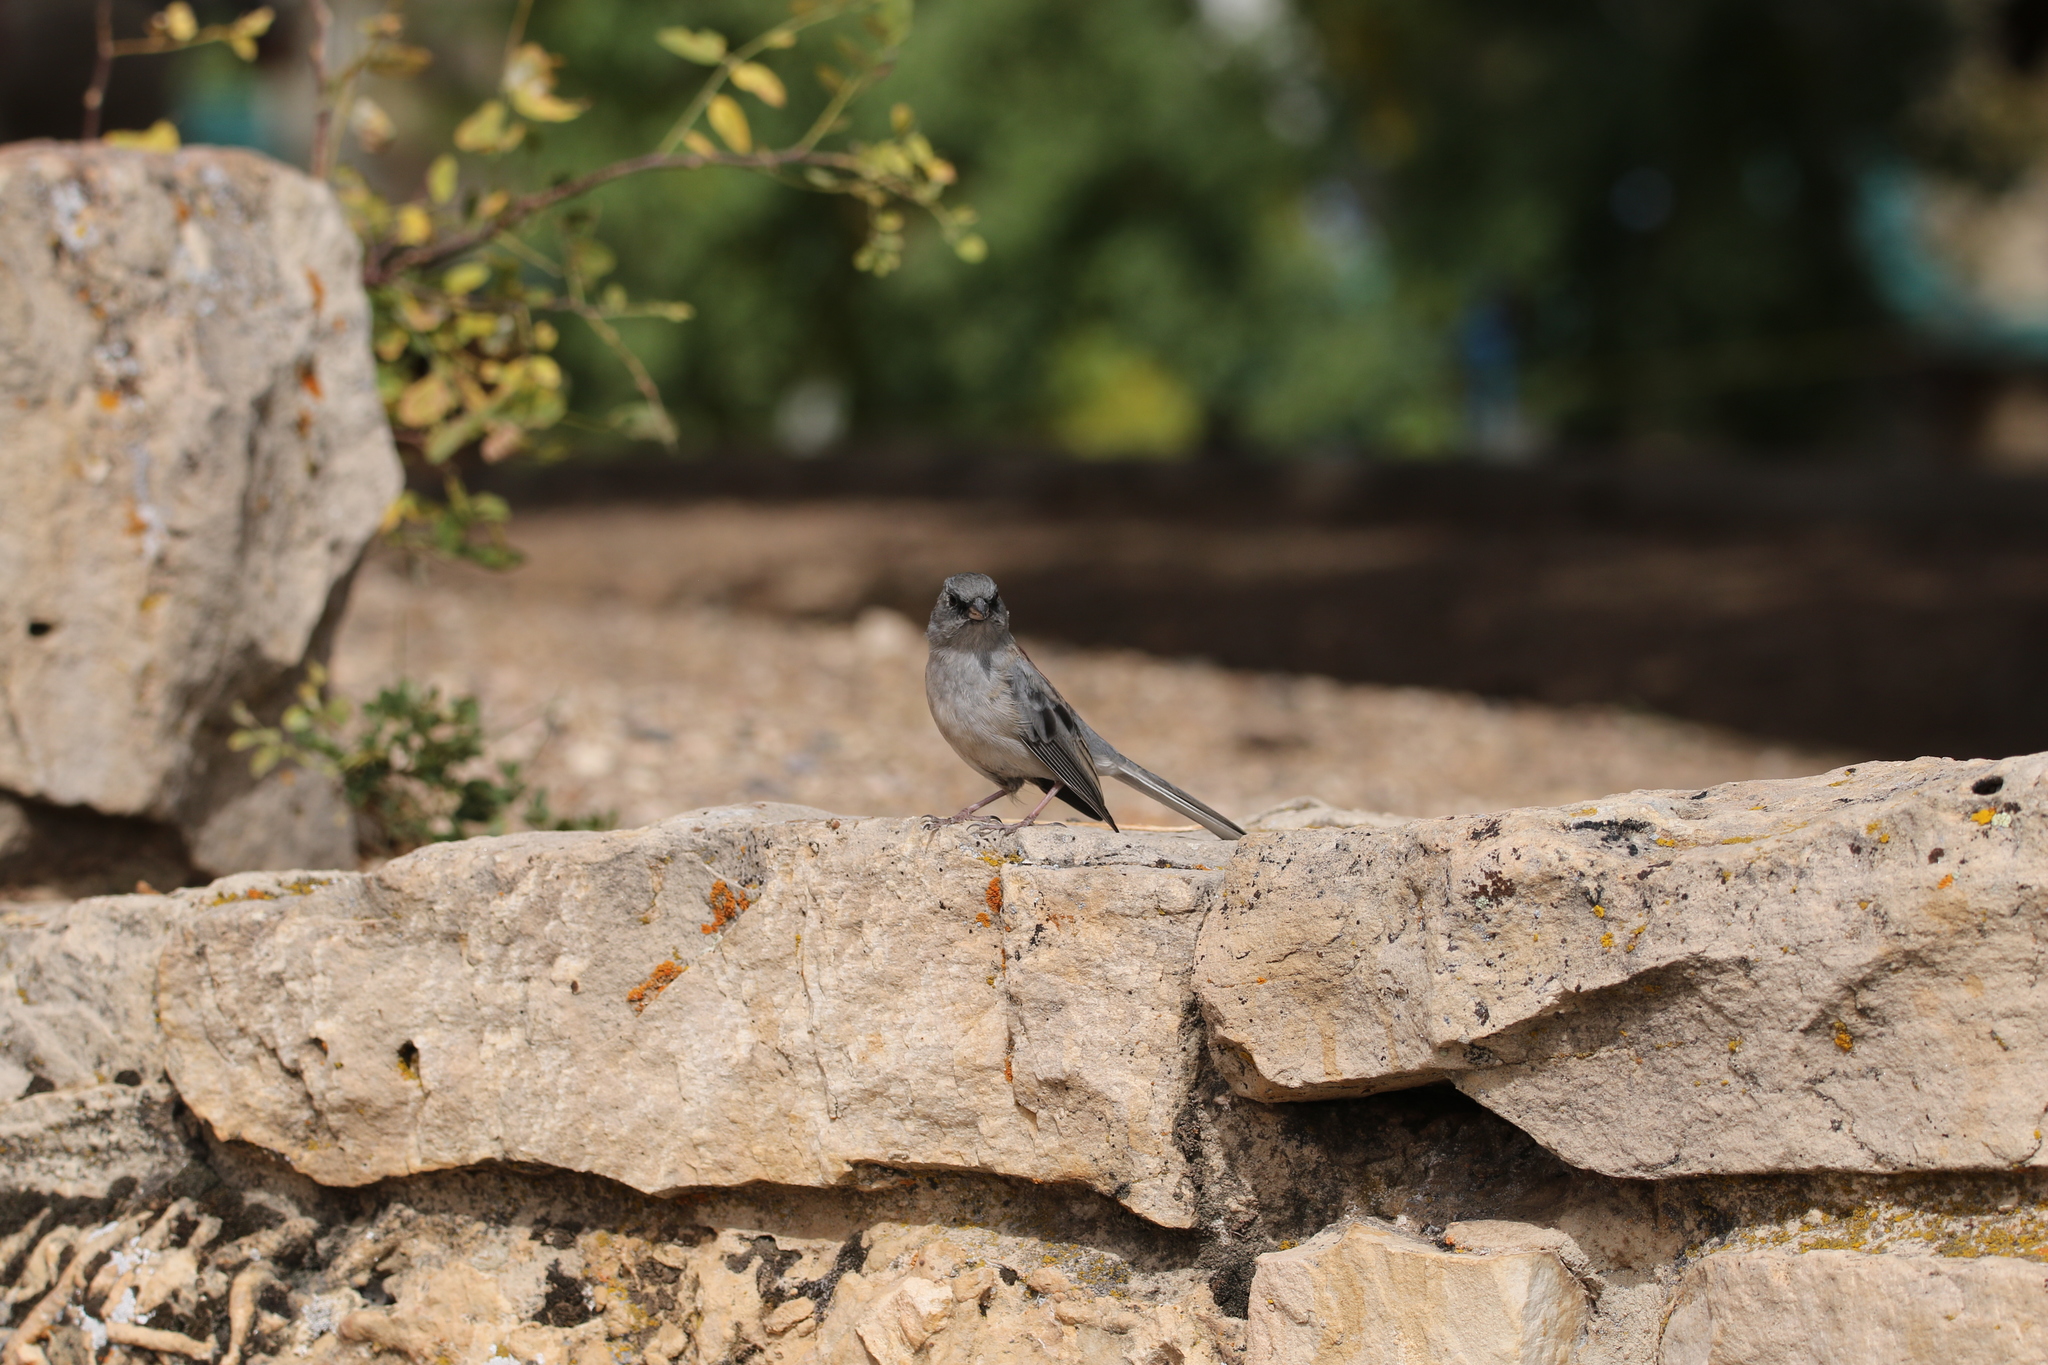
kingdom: Animalia
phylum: Chordata
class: Aves
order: Passeriformes
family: Passerellidae
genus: Junco
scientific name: Junco hyemalis
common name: Dark-eyed junco
